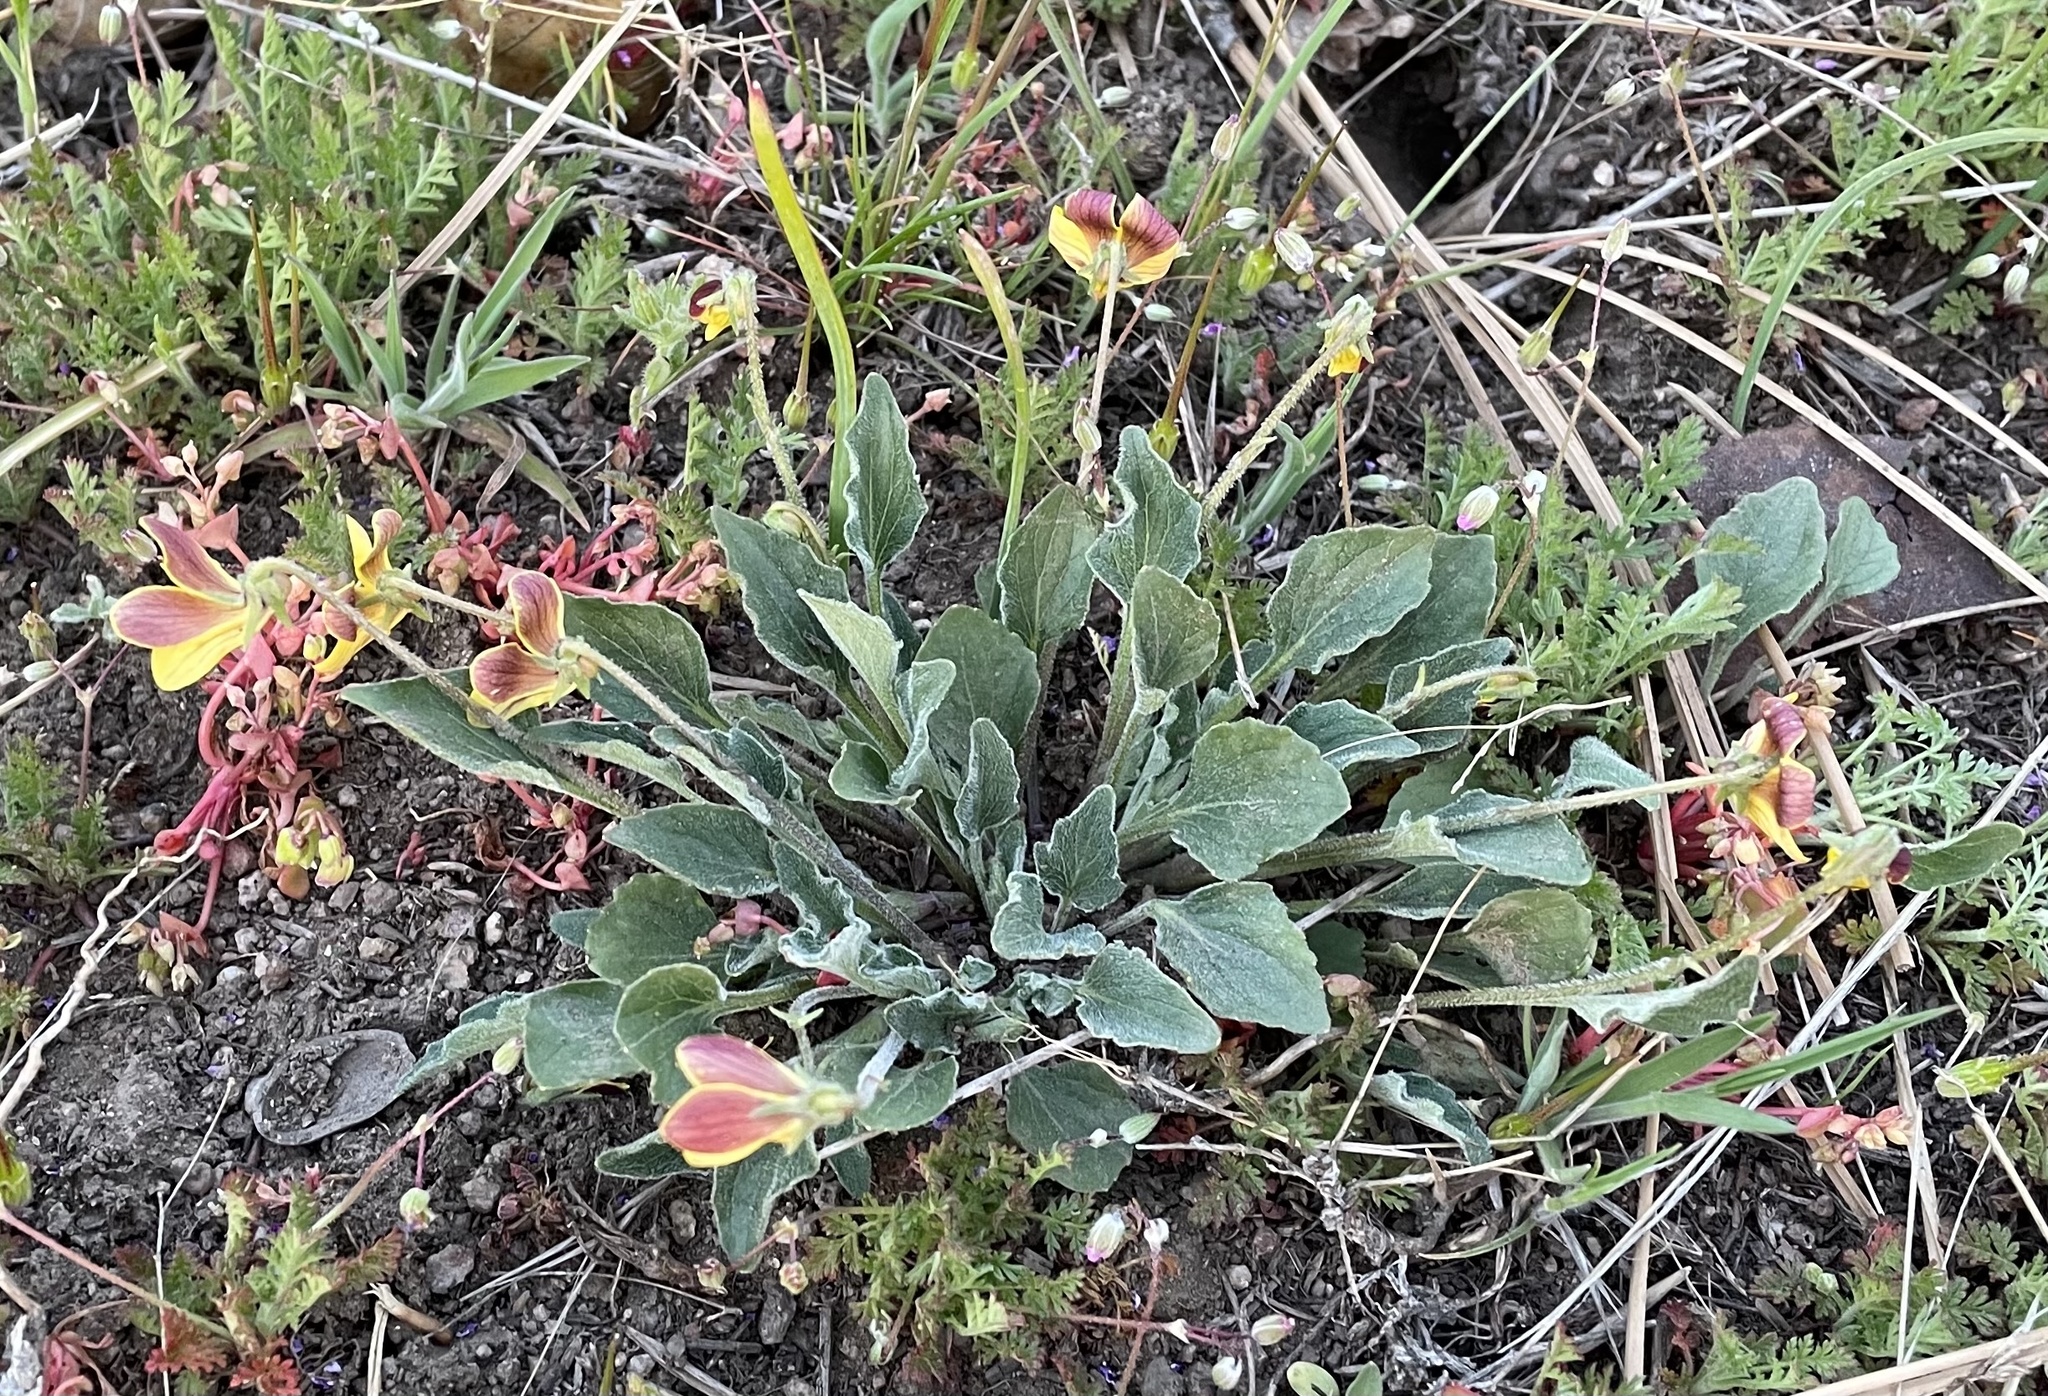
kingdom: Plantae
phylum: Tracheophyta
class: Magnoliopsida
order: Malpighiales
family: Violaceae
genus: Viola
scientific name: Viola purpurea
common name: Pine violet
